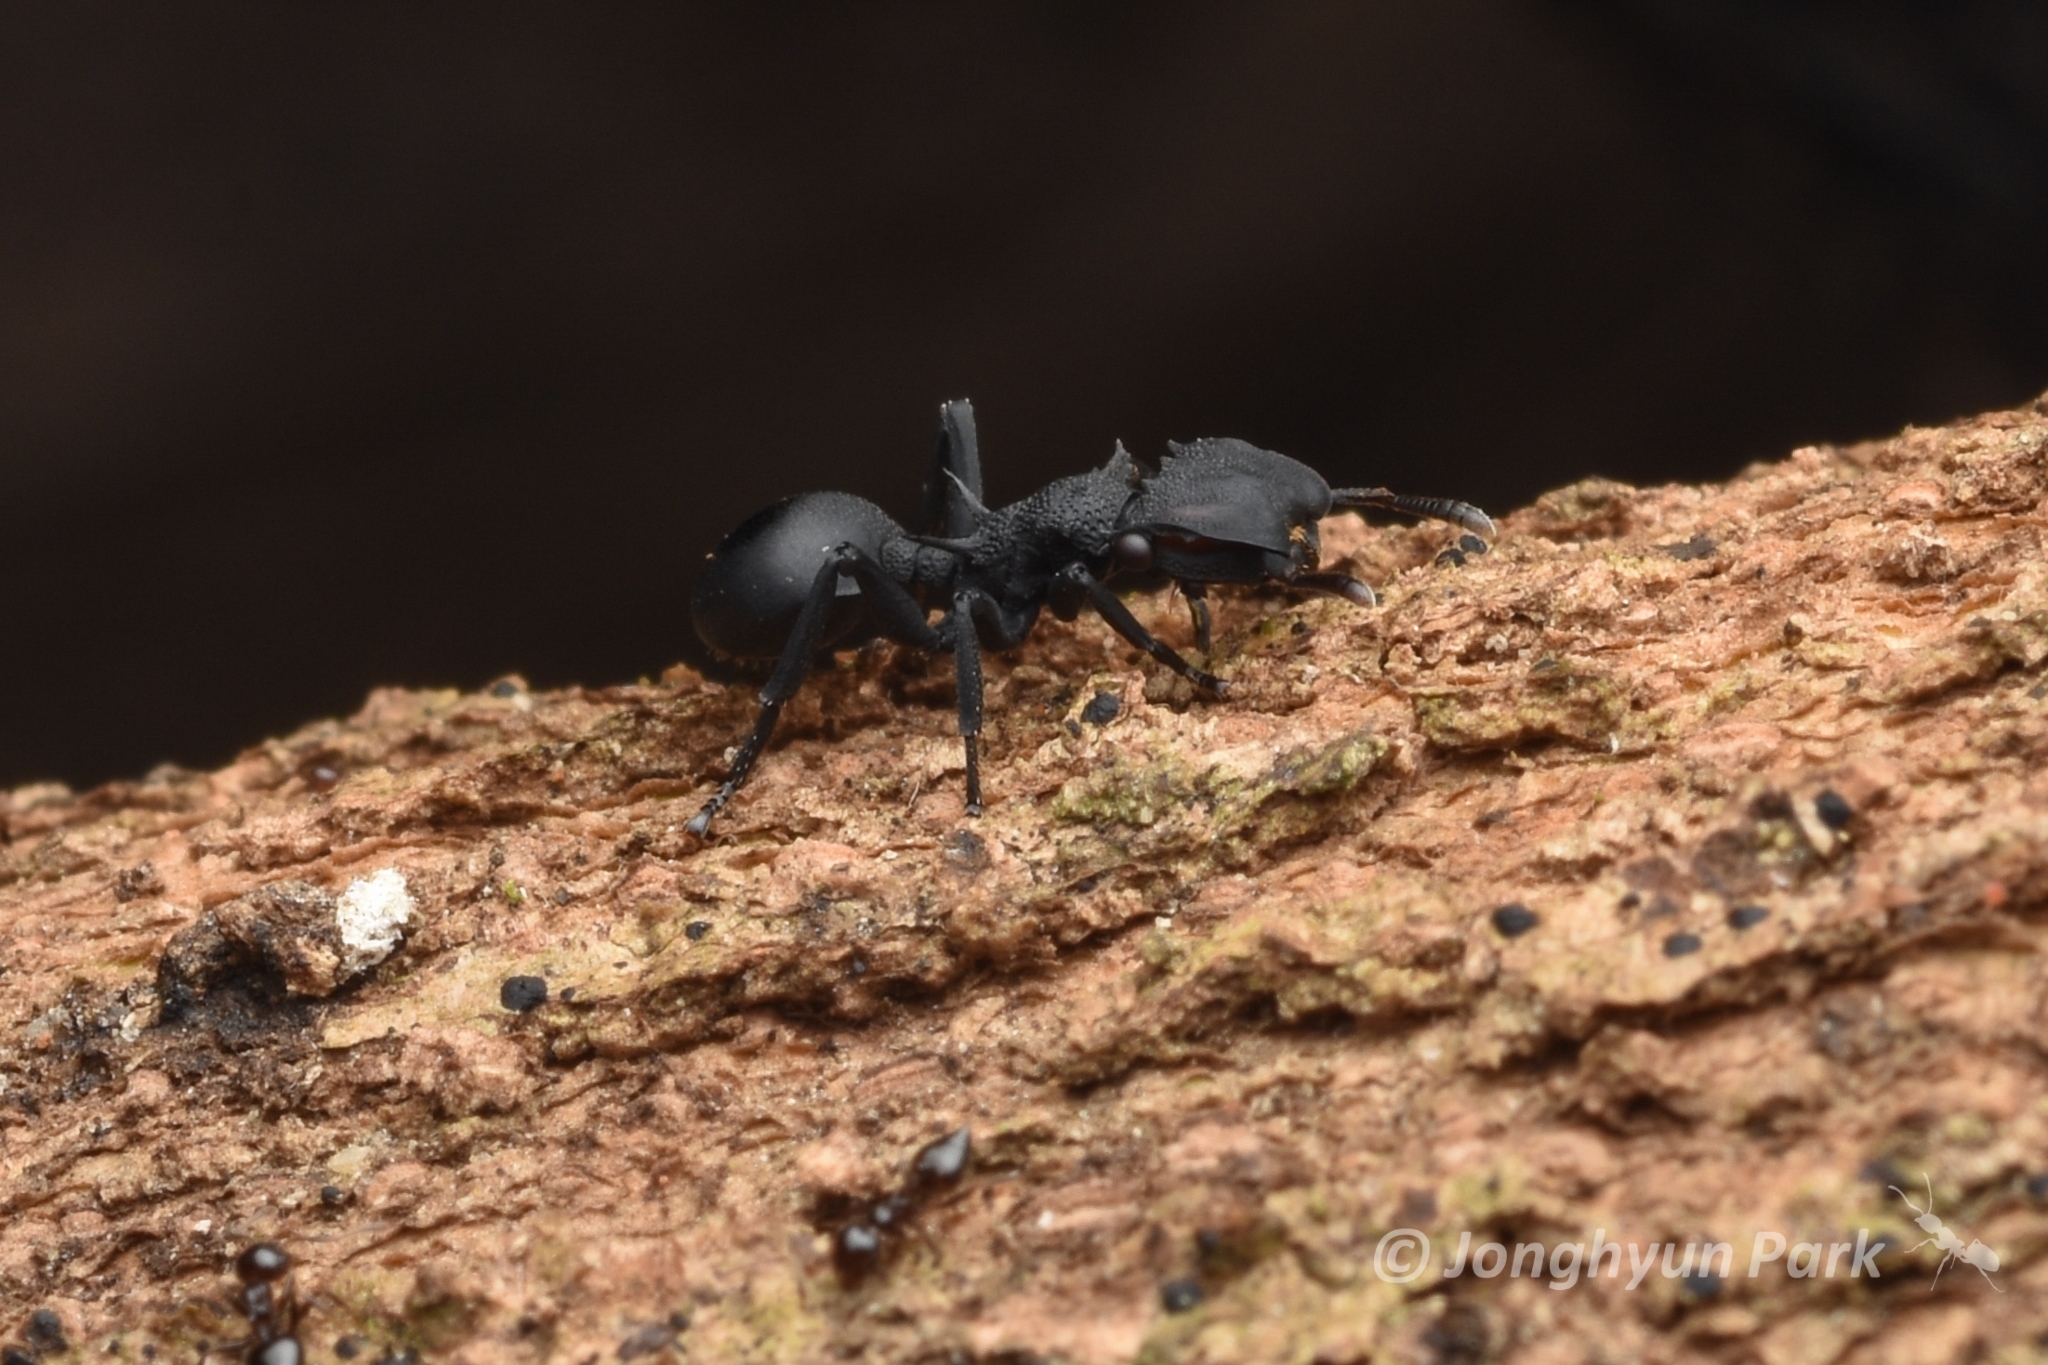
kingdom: Animalia
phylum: Arthropoda
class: Insecta
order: Hymenoptera
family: Formicidae
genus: Cephalotes
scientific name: Cephalotes placidus
